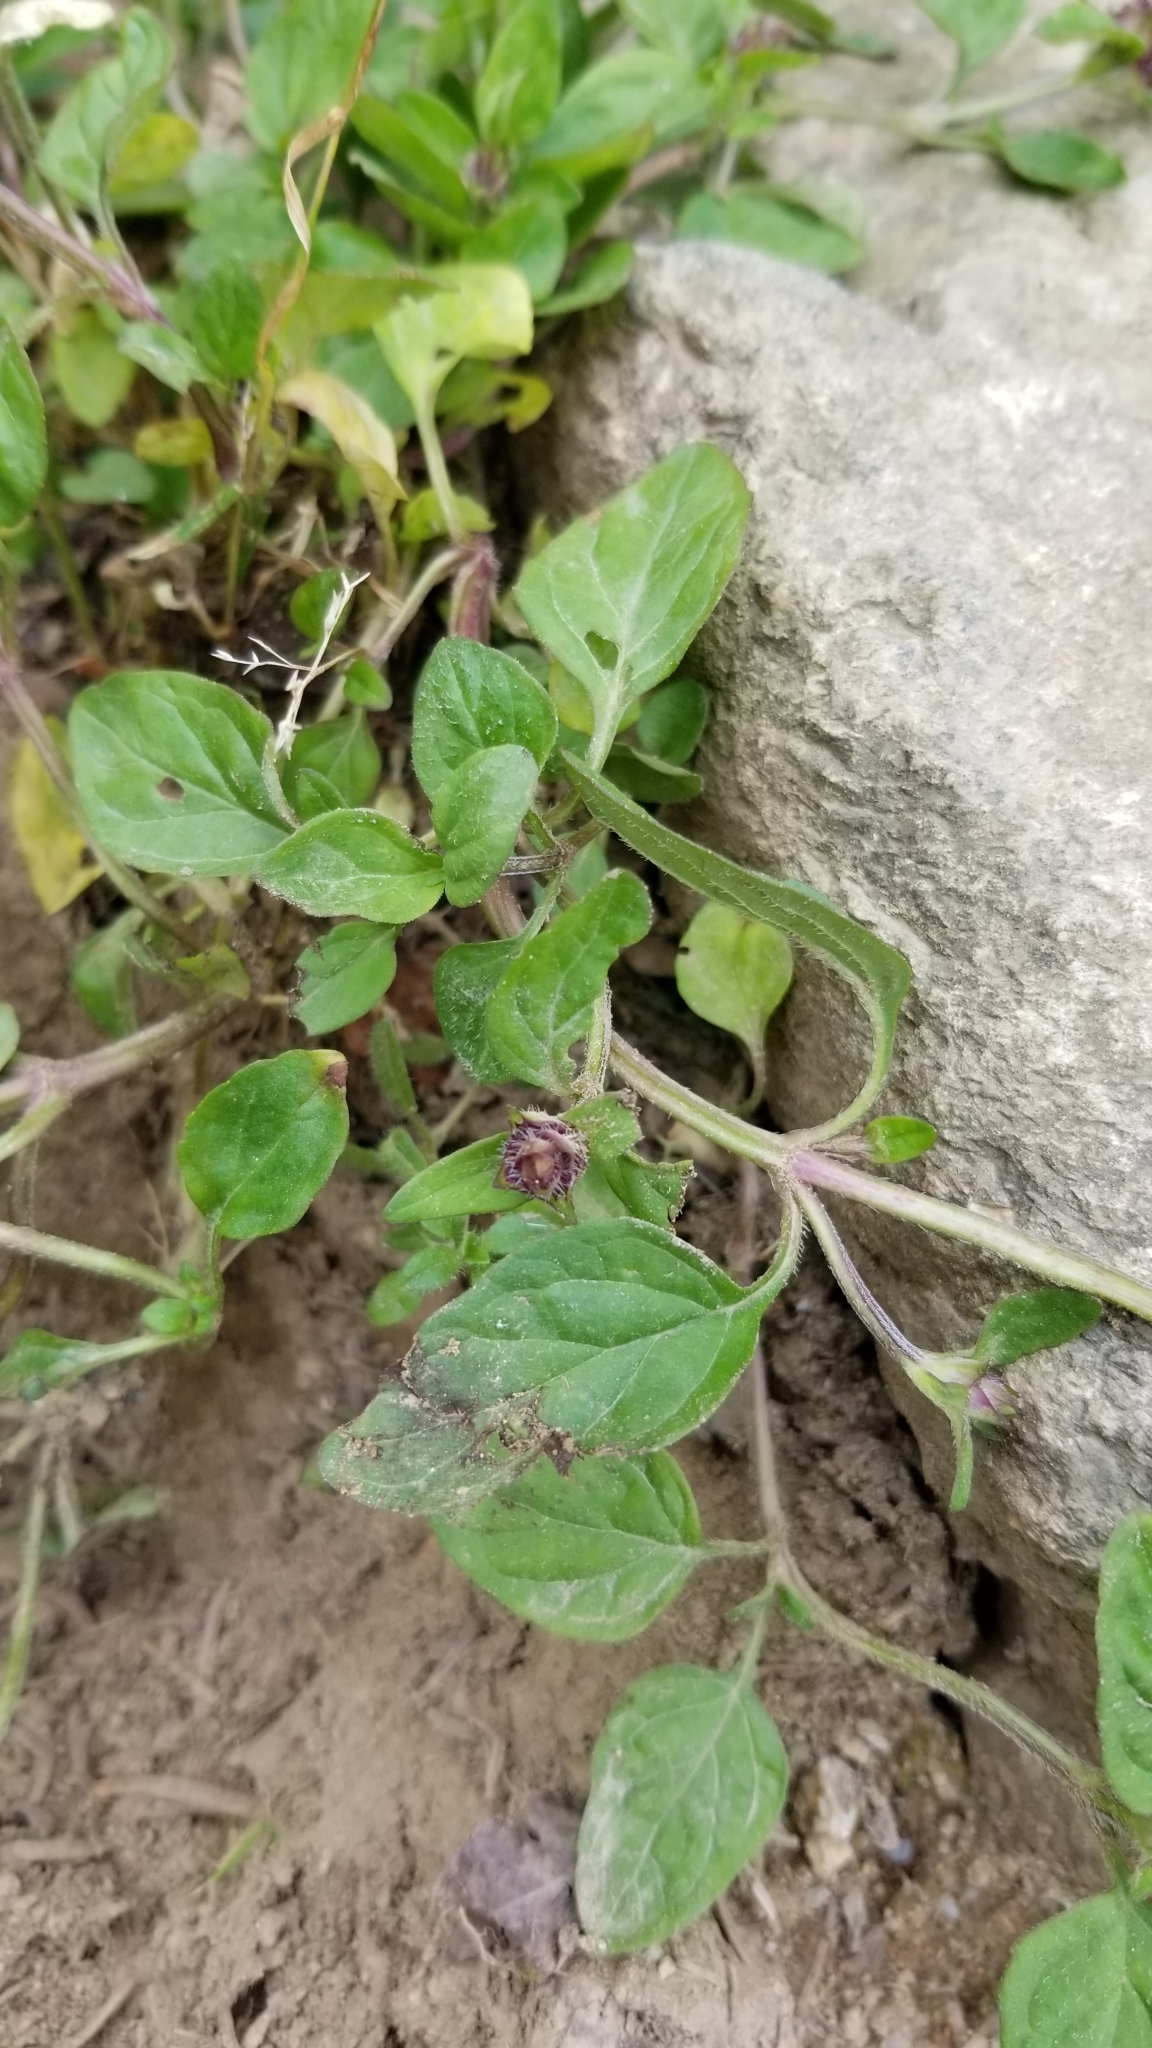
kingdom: Plantae
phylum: Tracheophyta
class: Magnoliopsida
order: Lamiales
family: Lamiaceae
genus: Prunella
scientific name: Prunella vulgaris
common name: Heal-all
